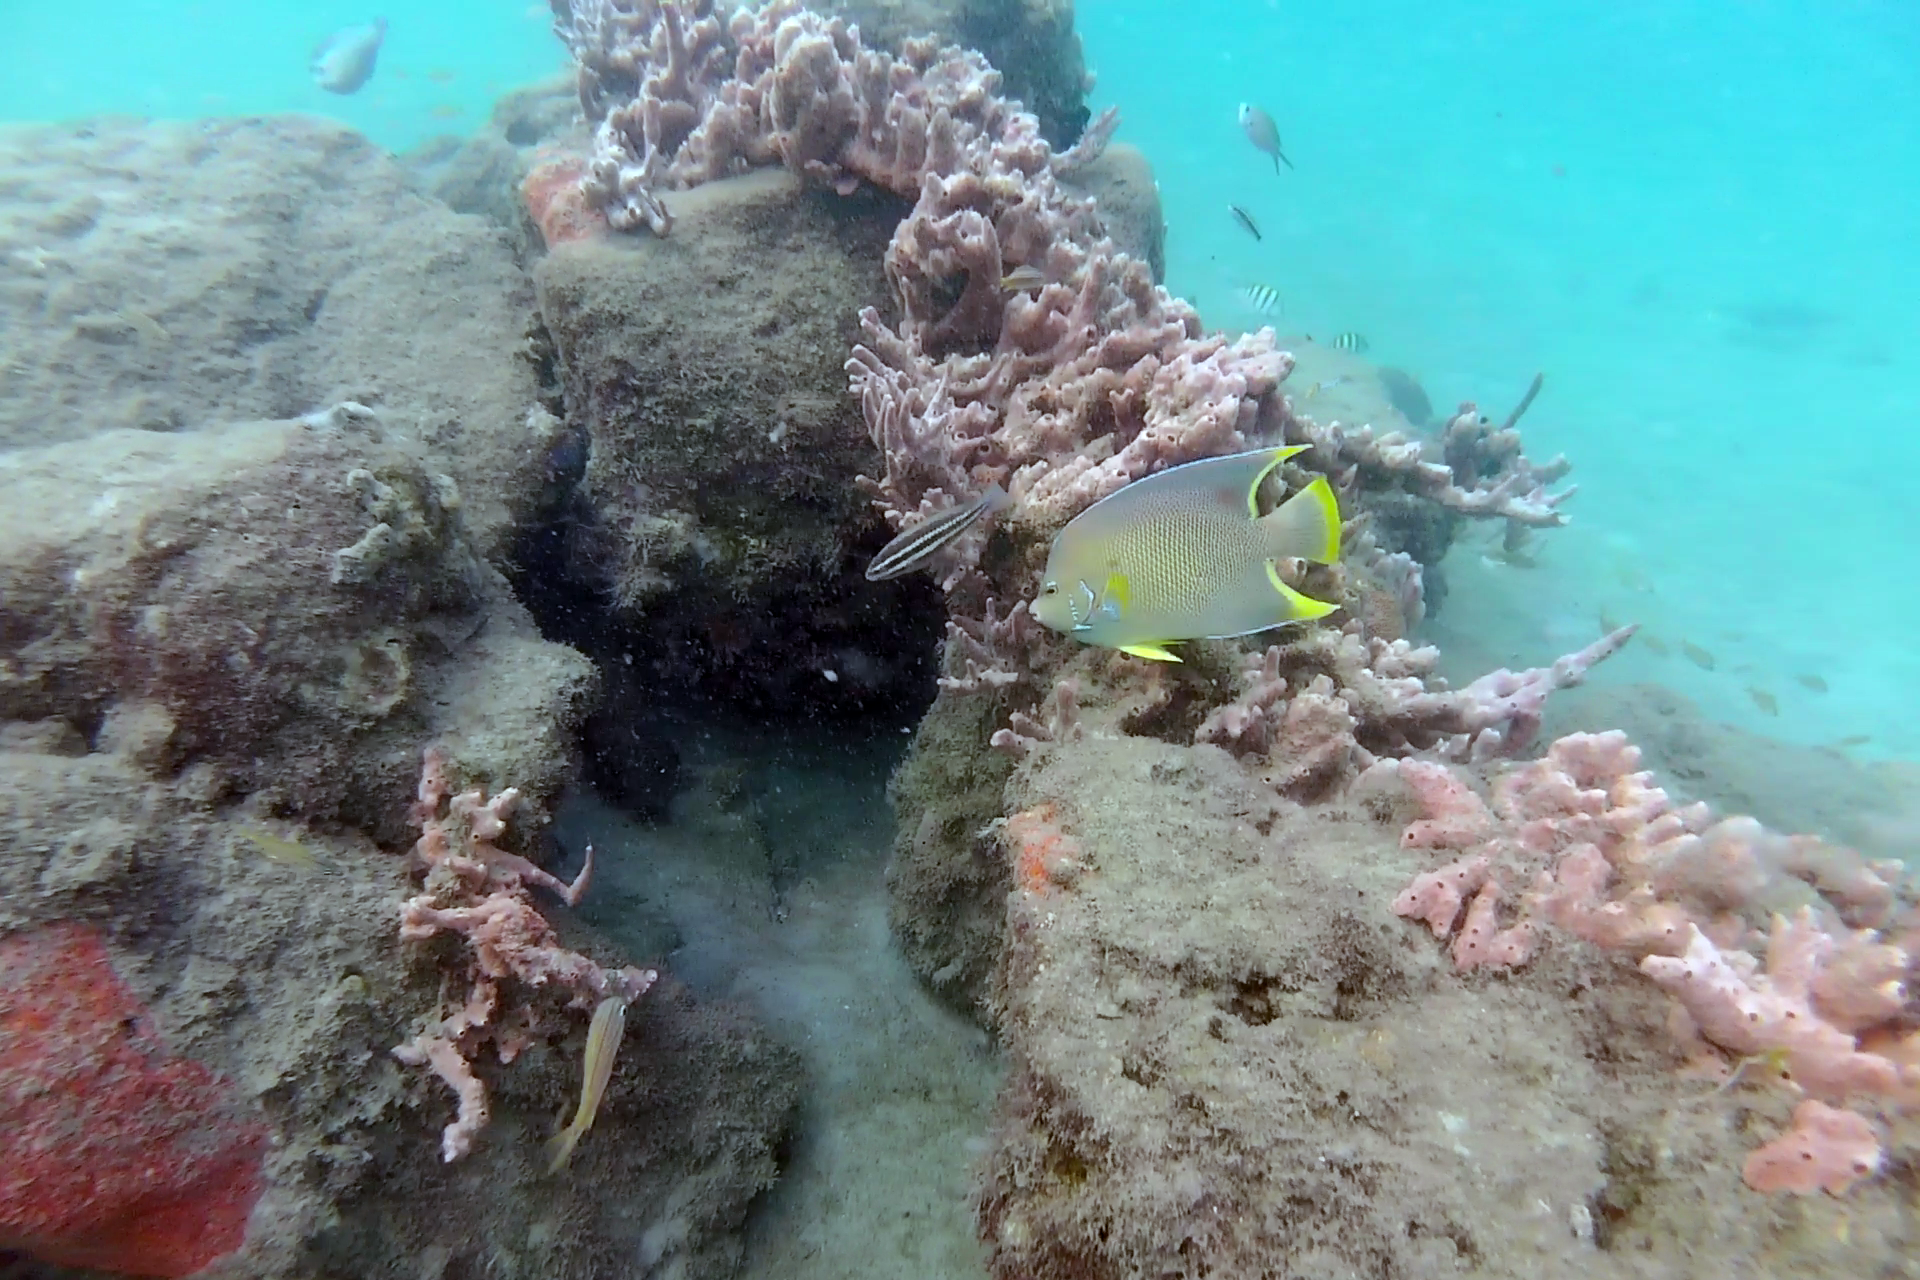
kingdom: Animalia
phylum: Chordata
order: Perciformes
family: Pomacanthidae
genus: Holacanthus
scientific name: Holacanthus bermudensis
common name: Blue angelfish
